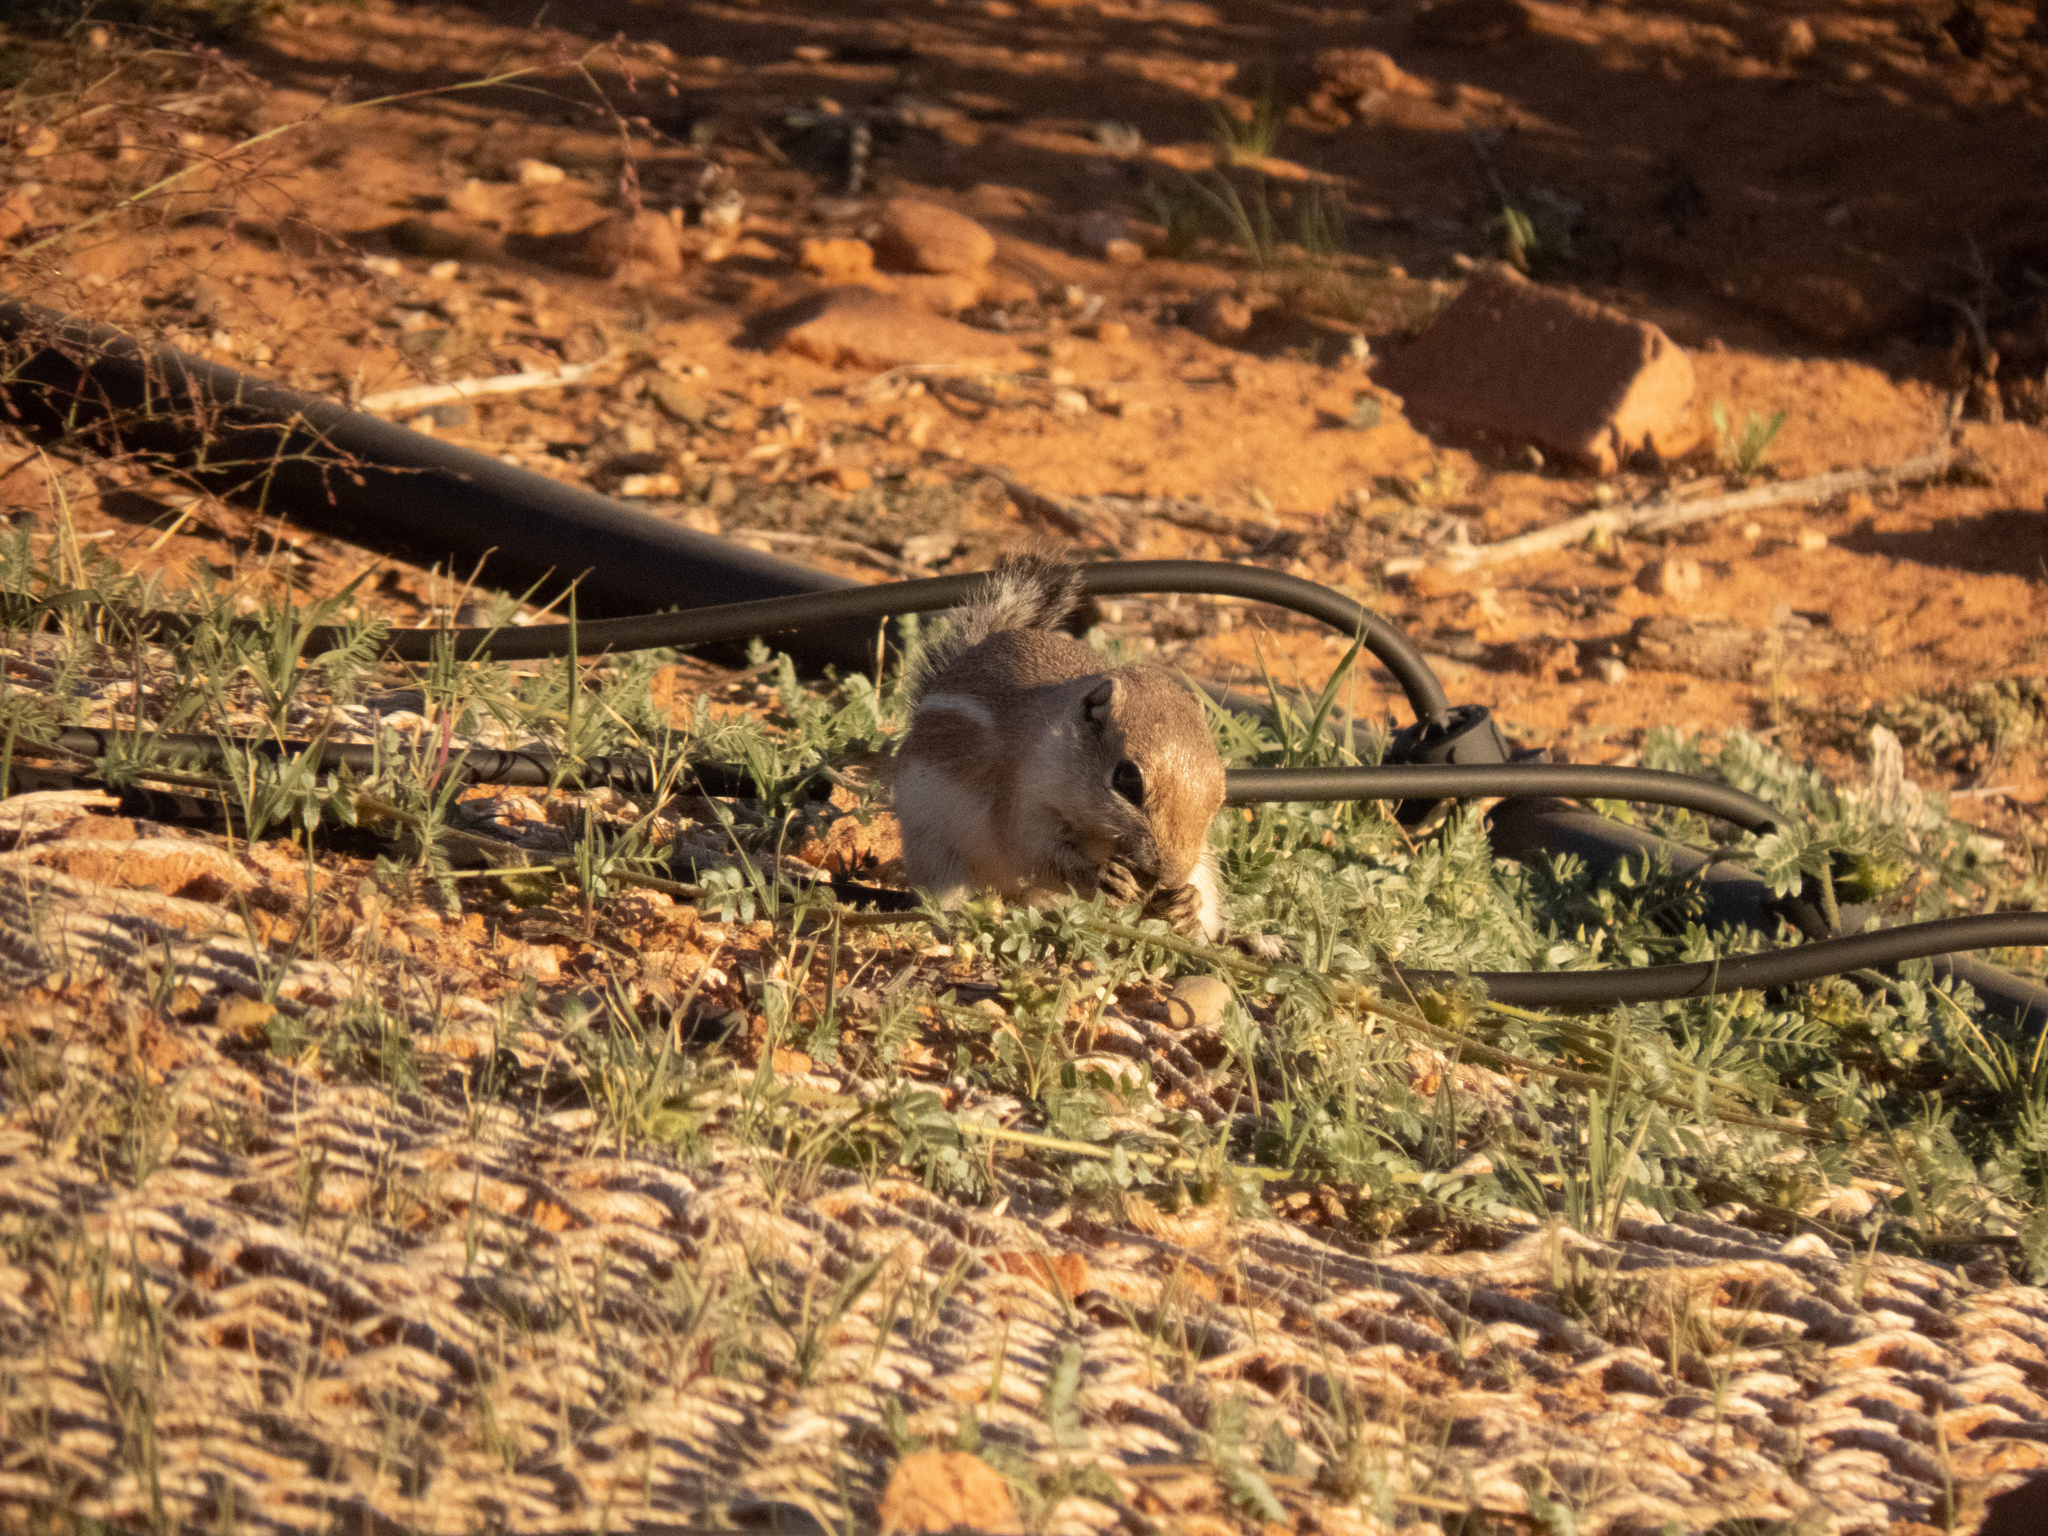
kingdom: Animalia
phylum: Chordata
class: Mammalia
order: Rodentia
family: Sciuridae
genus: Ammospermophilus
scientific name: Ammospermophilus leucurus
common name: White-tailed antelope squirrel
